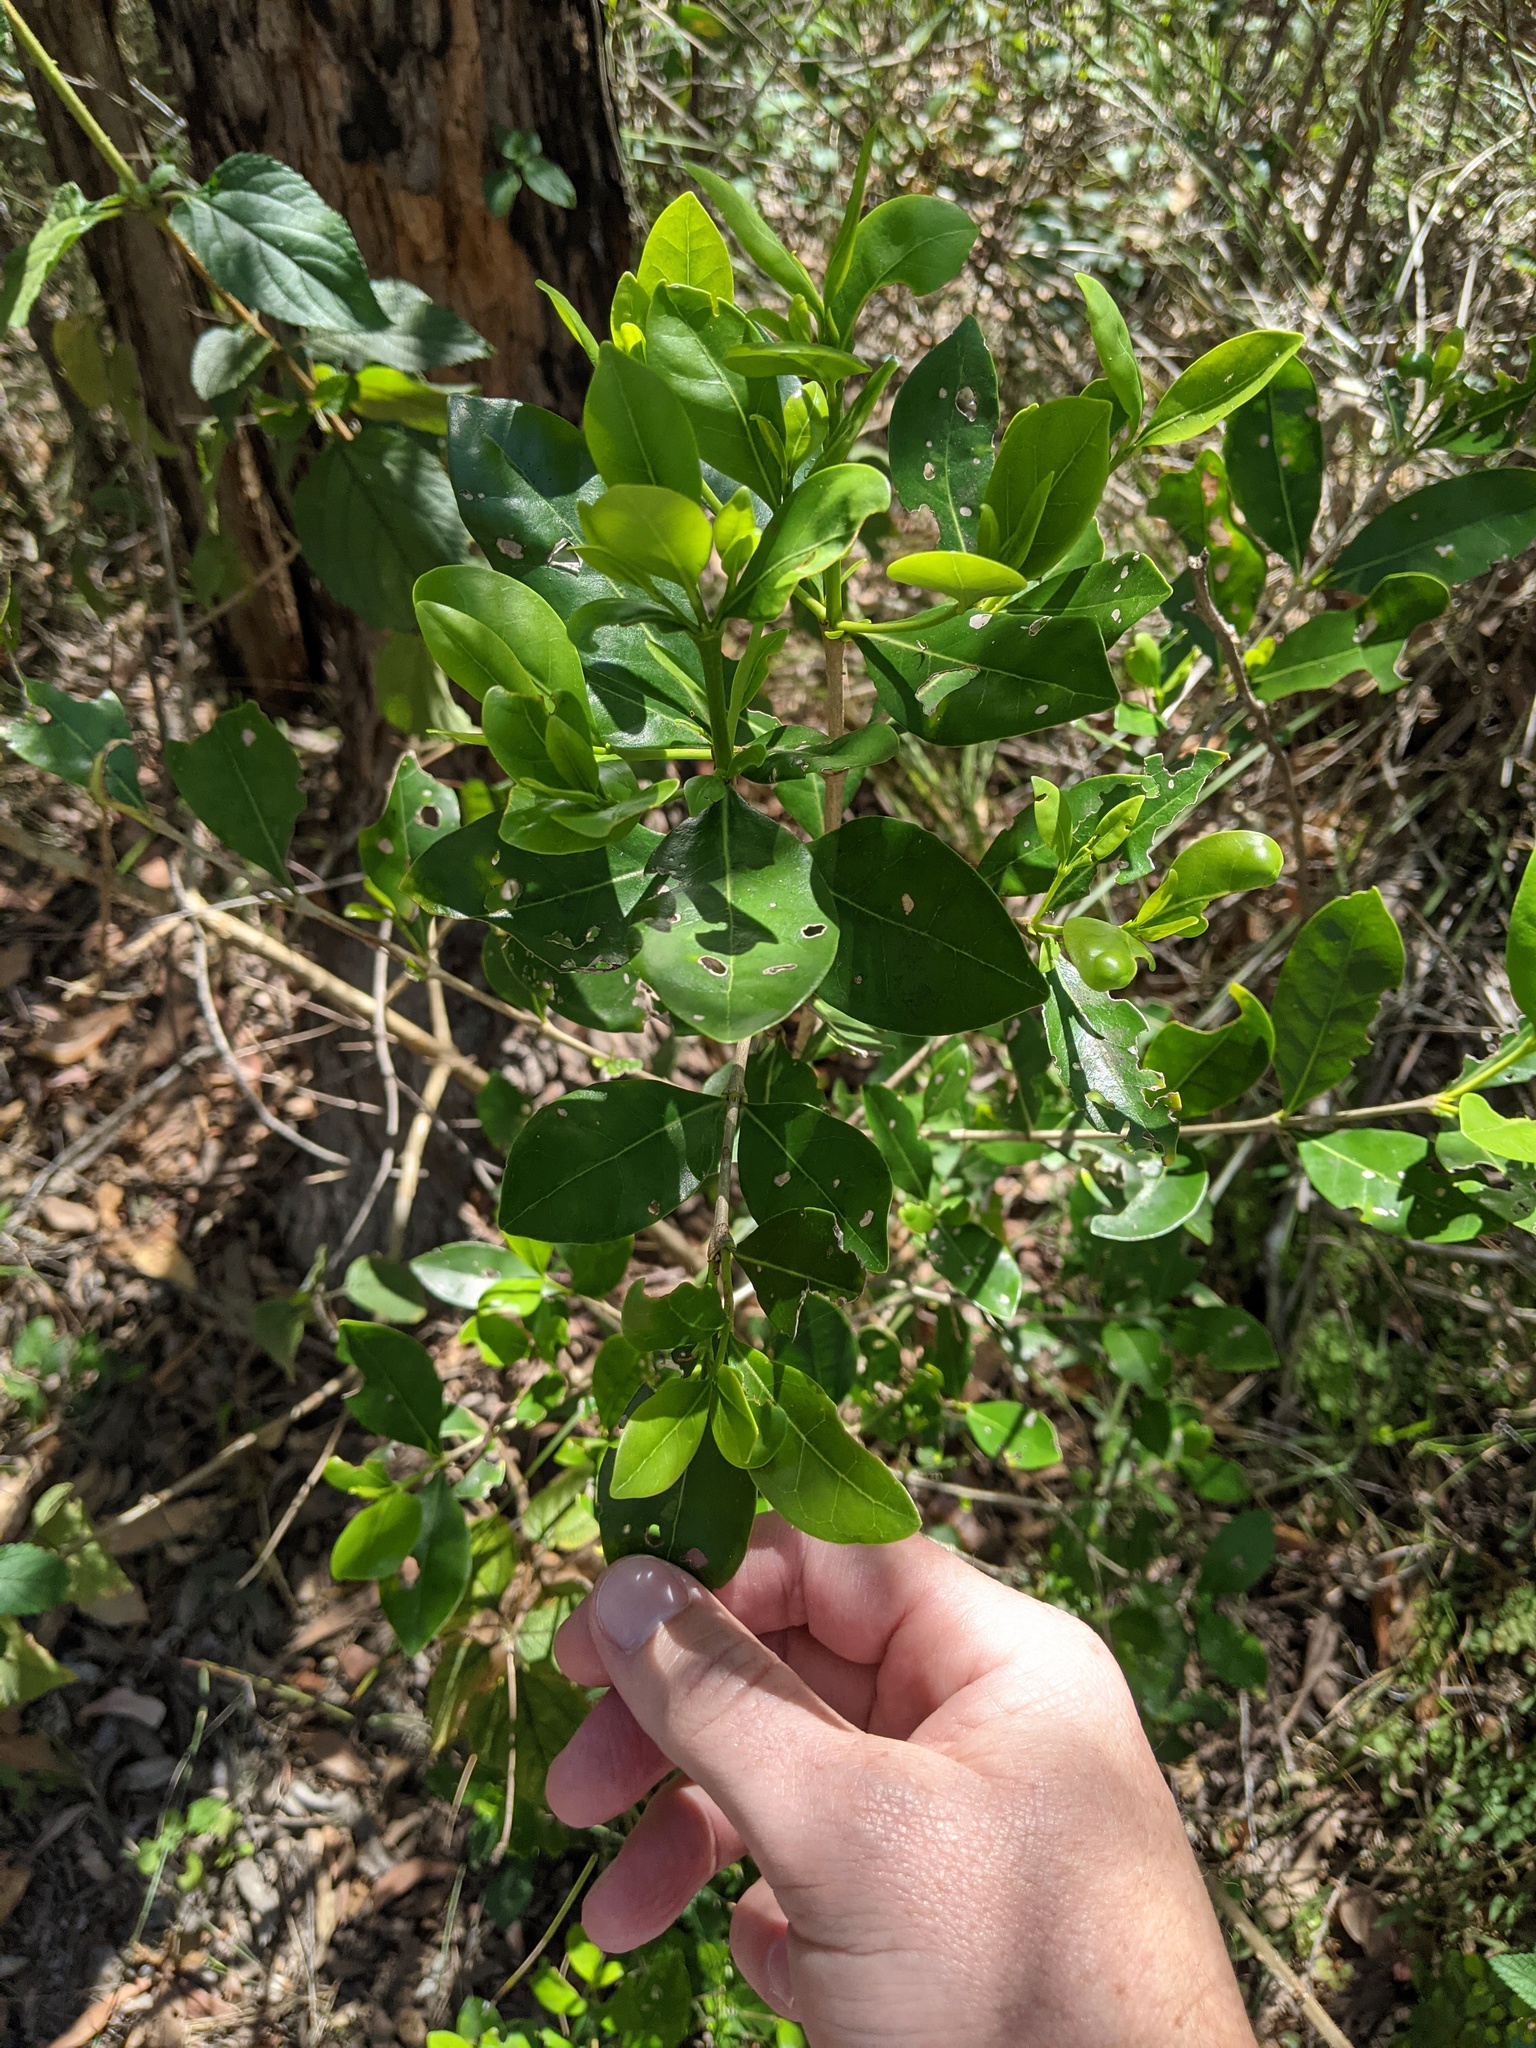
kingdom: Plantae
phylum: Tracheophyta
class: Magnoliopsida
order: Gentianales
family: Rubiaceae
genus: Psydrax
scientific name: Psydrax odoratus
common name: Alahe'e
